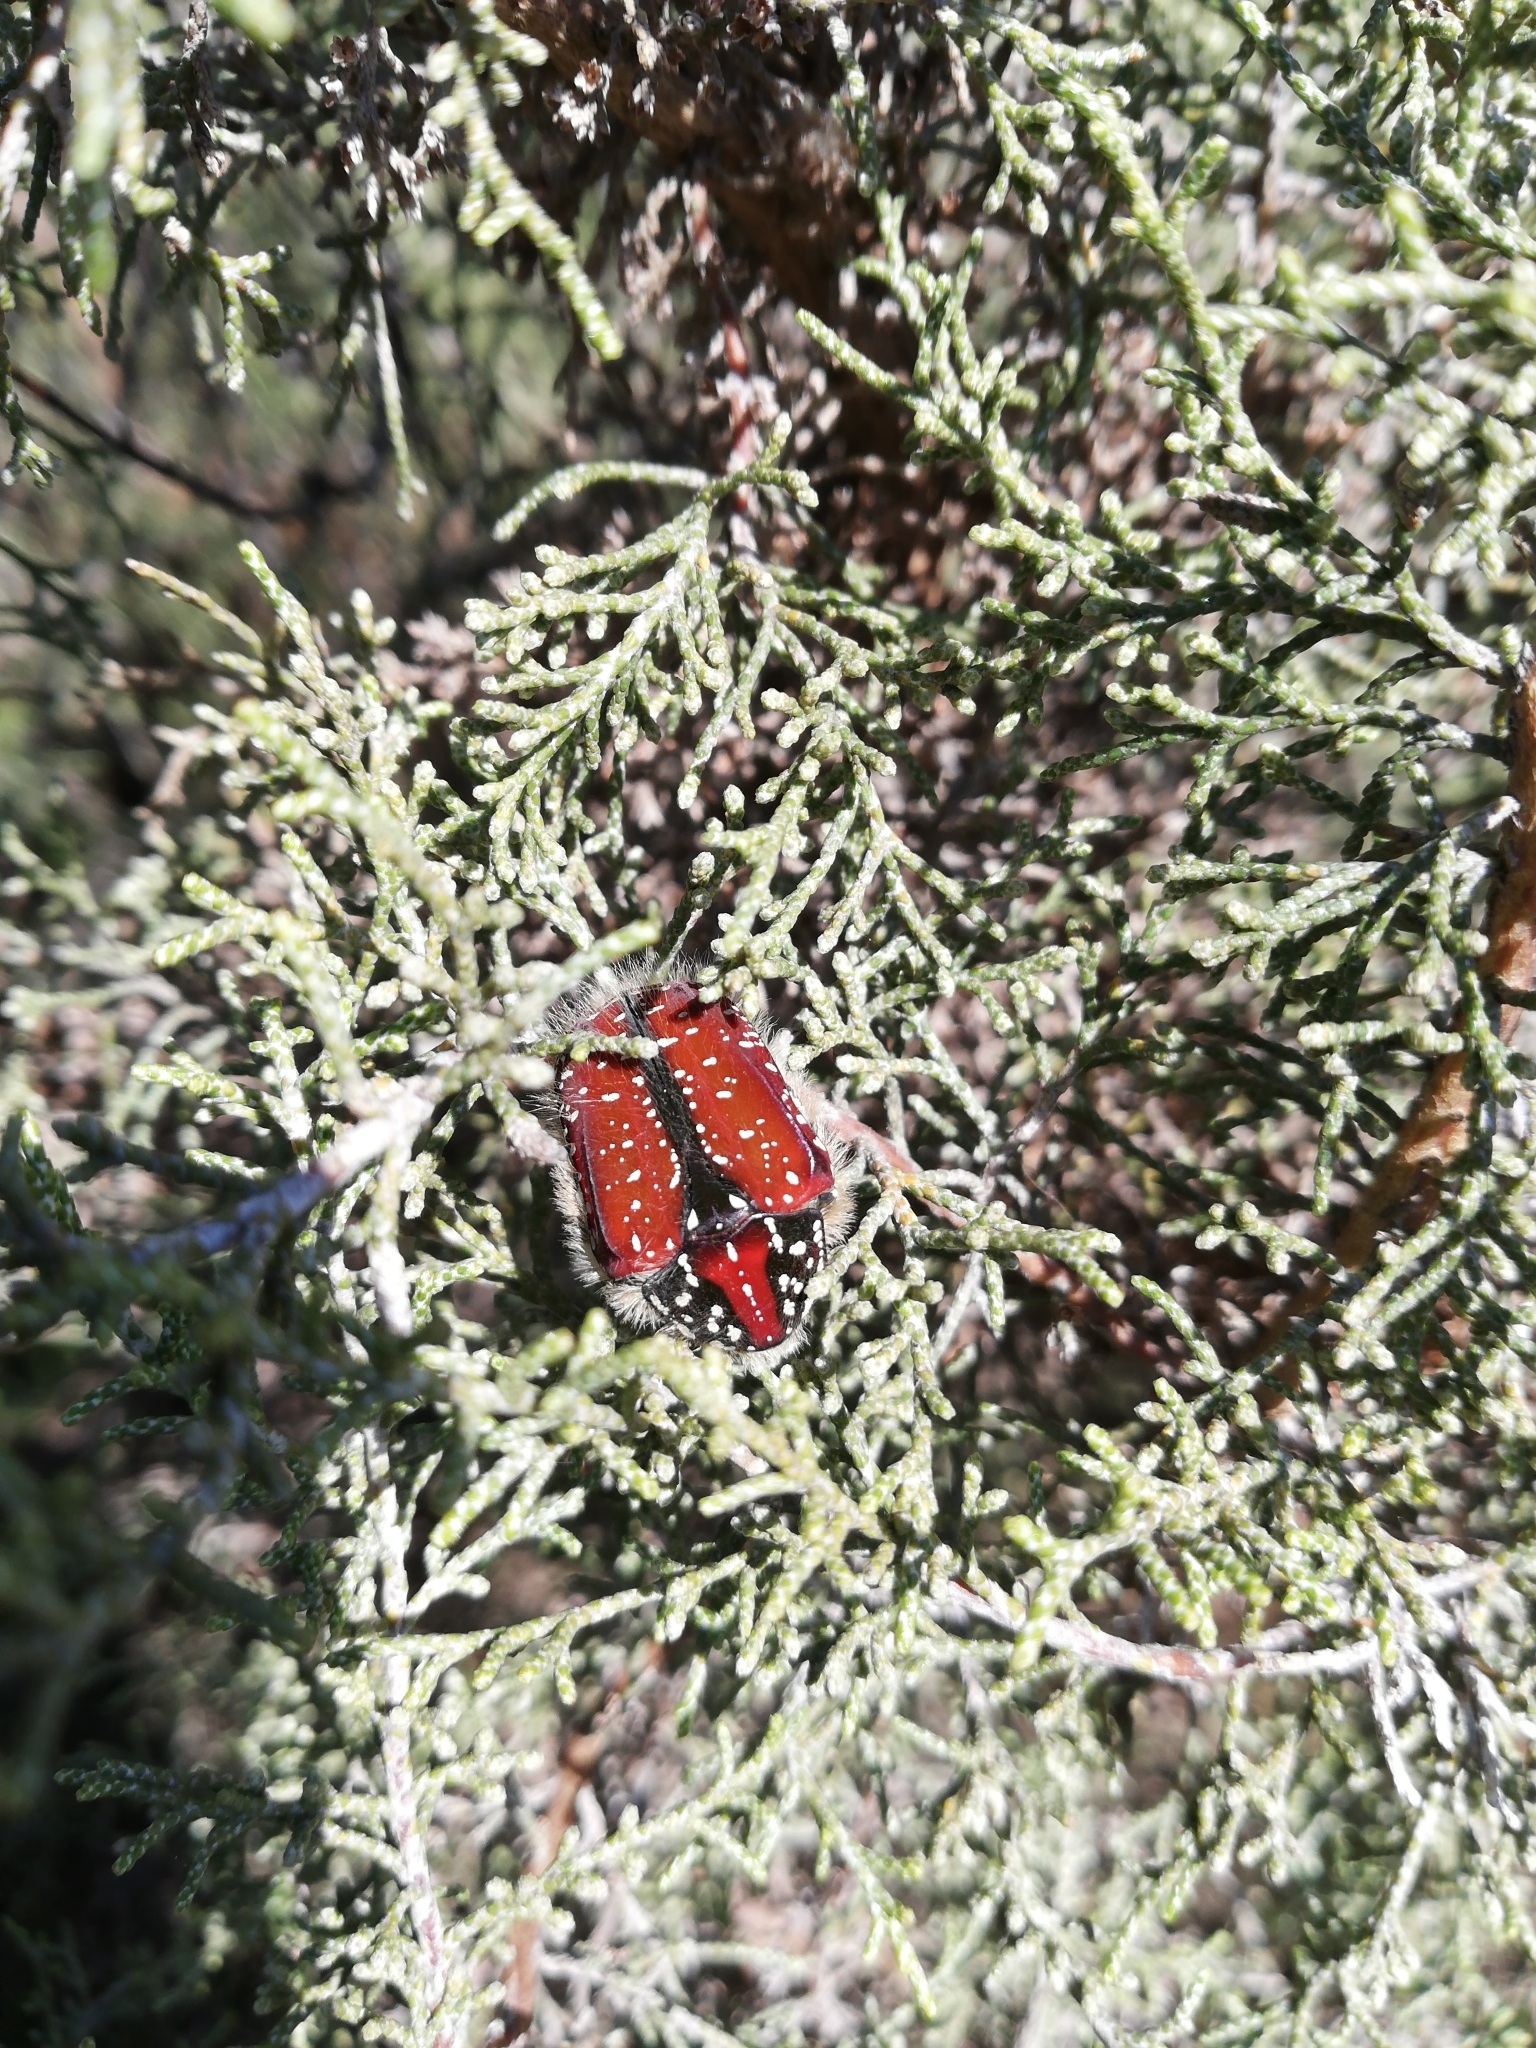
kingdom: Animalia
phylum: Arthropoda
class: Insecta
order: Coleoptera
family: Scarabaeidae
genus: Trichostetha
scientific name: Trichostetha capensis
